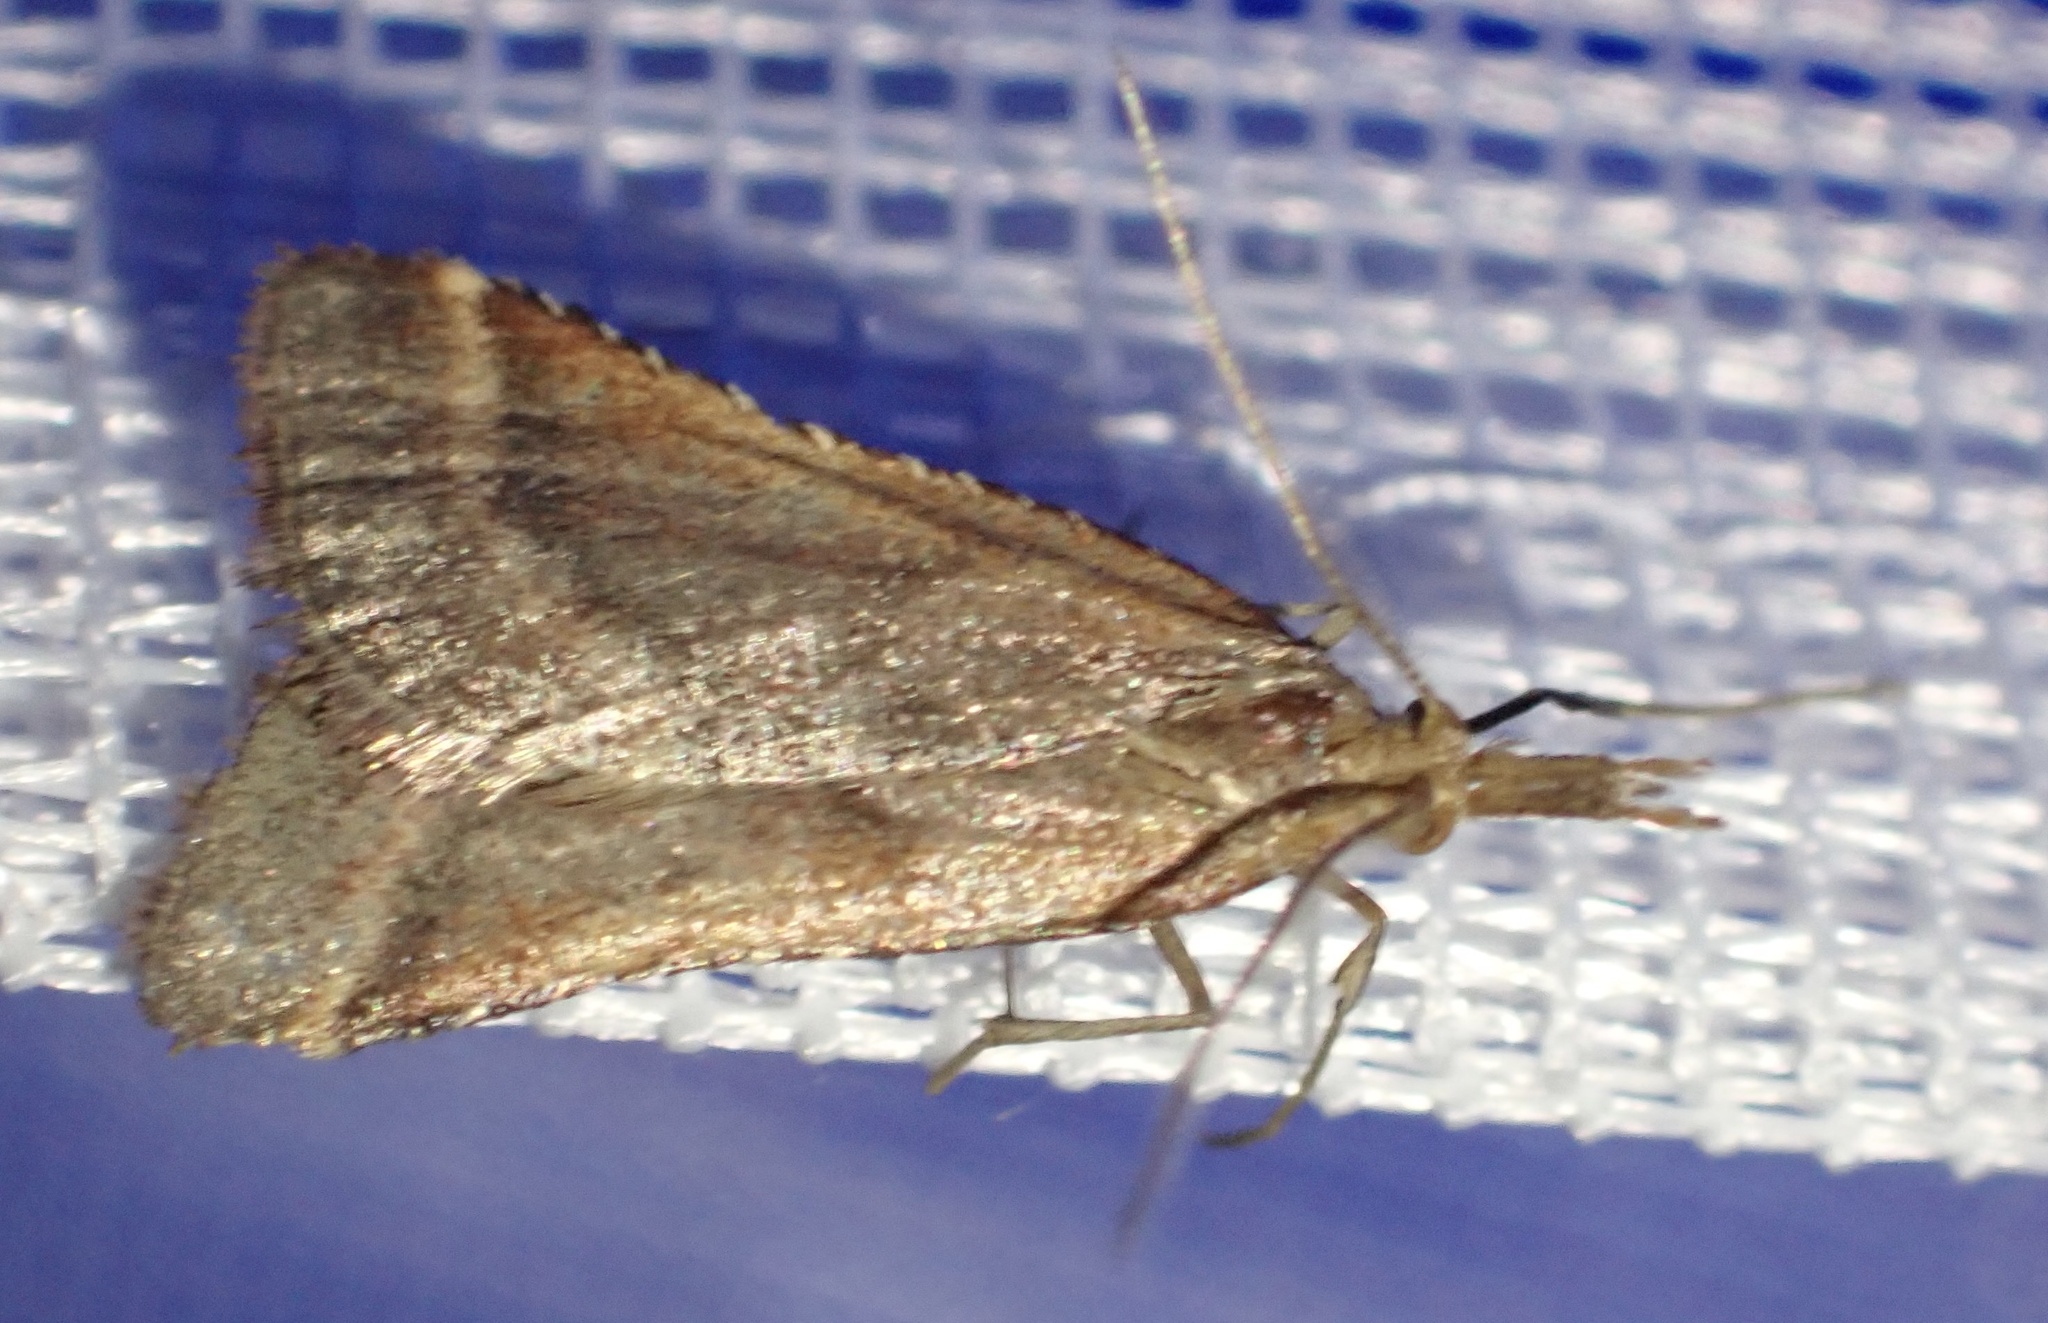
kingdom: Animalia
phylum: Arthropoda
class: Insecta
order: Lepidoptera
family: Pyralidae
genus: Synaphe
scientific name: Synaphe punctalis
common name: Long-legged tabby
